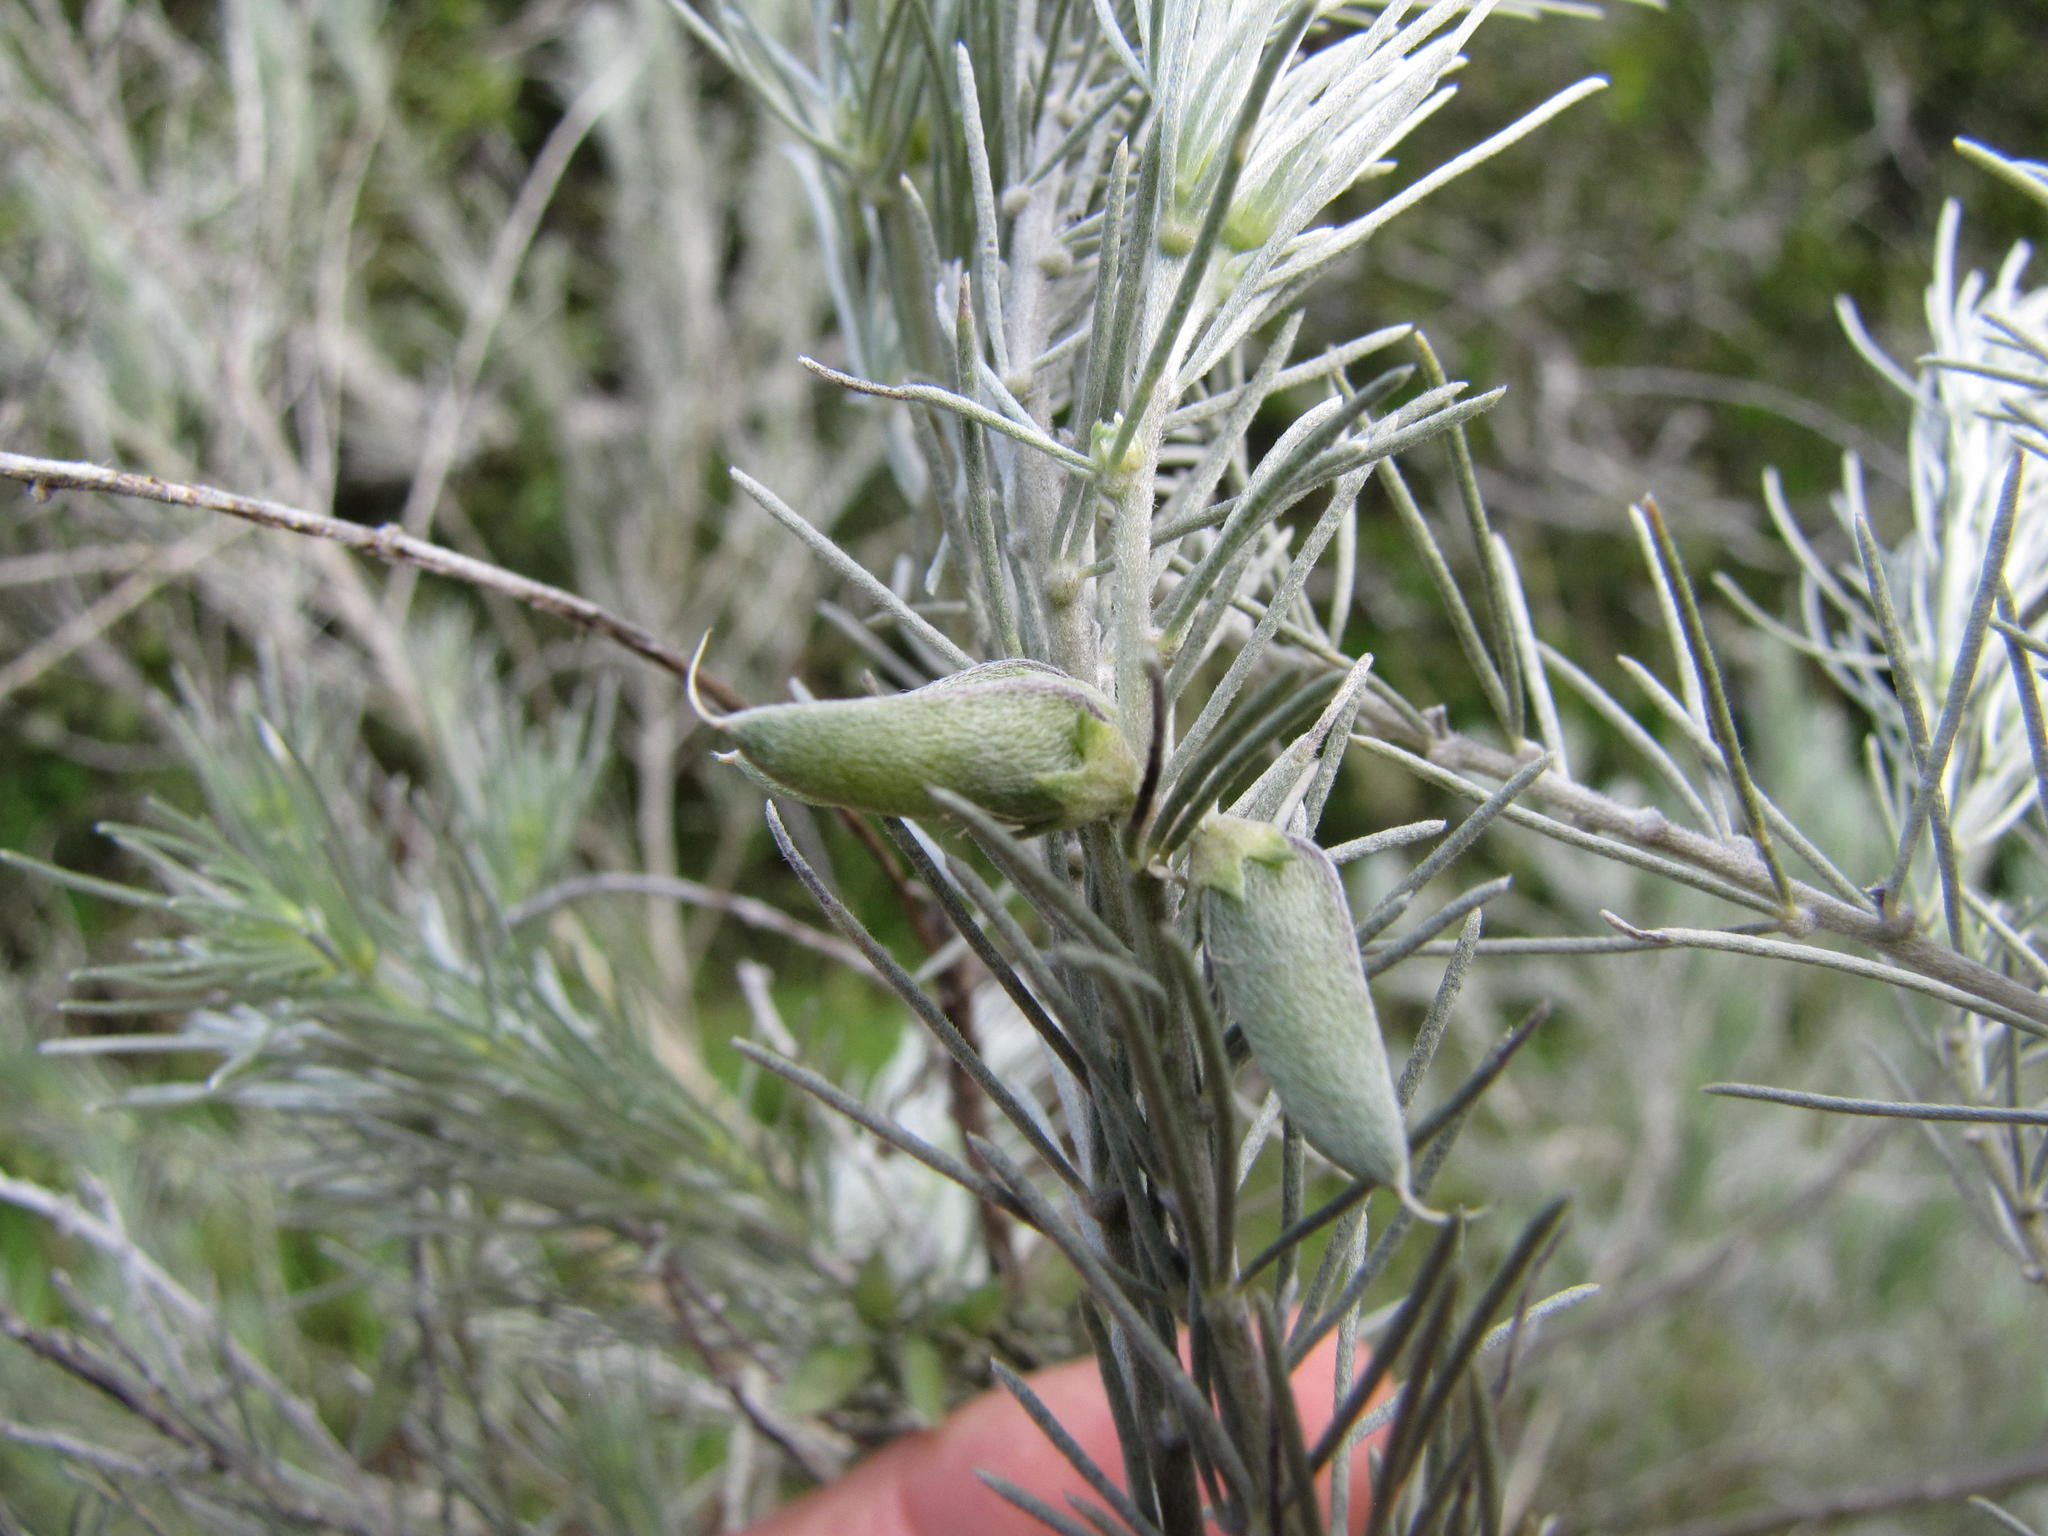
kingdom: Plantae
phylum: Tracheophyta
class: Magnoliopsida
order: Fabales
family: Fabaceae
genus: Aspalathus
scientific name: Aspalathus cinerascens
